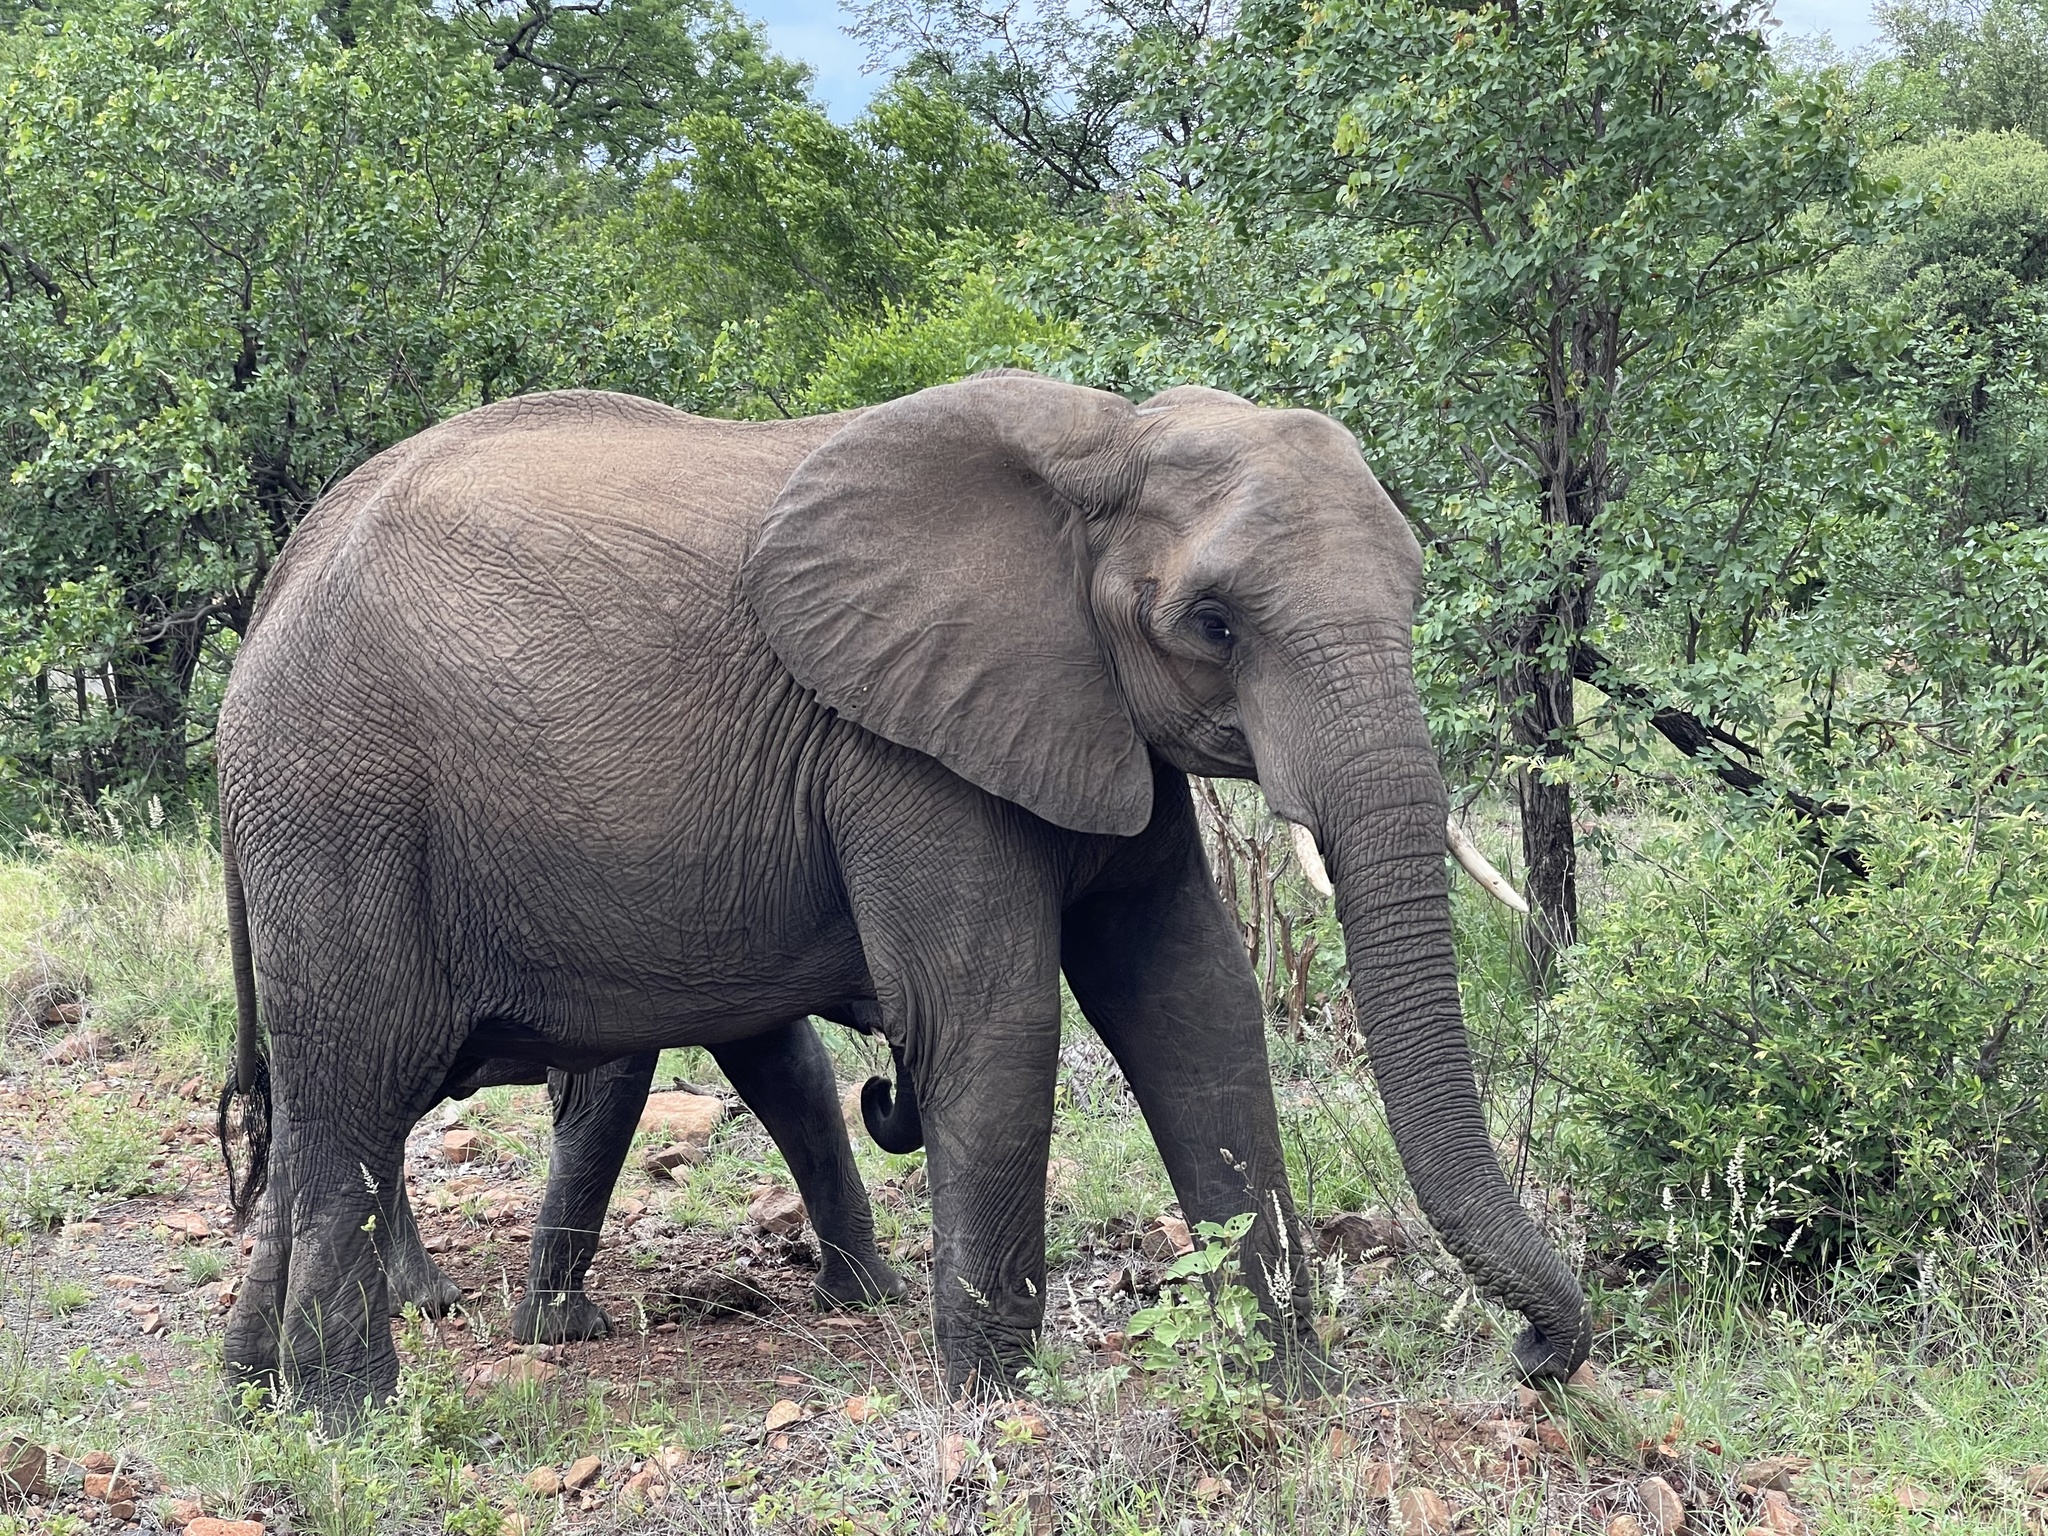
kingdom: Animalia
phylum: Chordata
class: Mammalia
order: Proboscidea
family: Elephantidae
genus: Loxodonta
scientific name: Loxodonta africana
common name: African elephant
